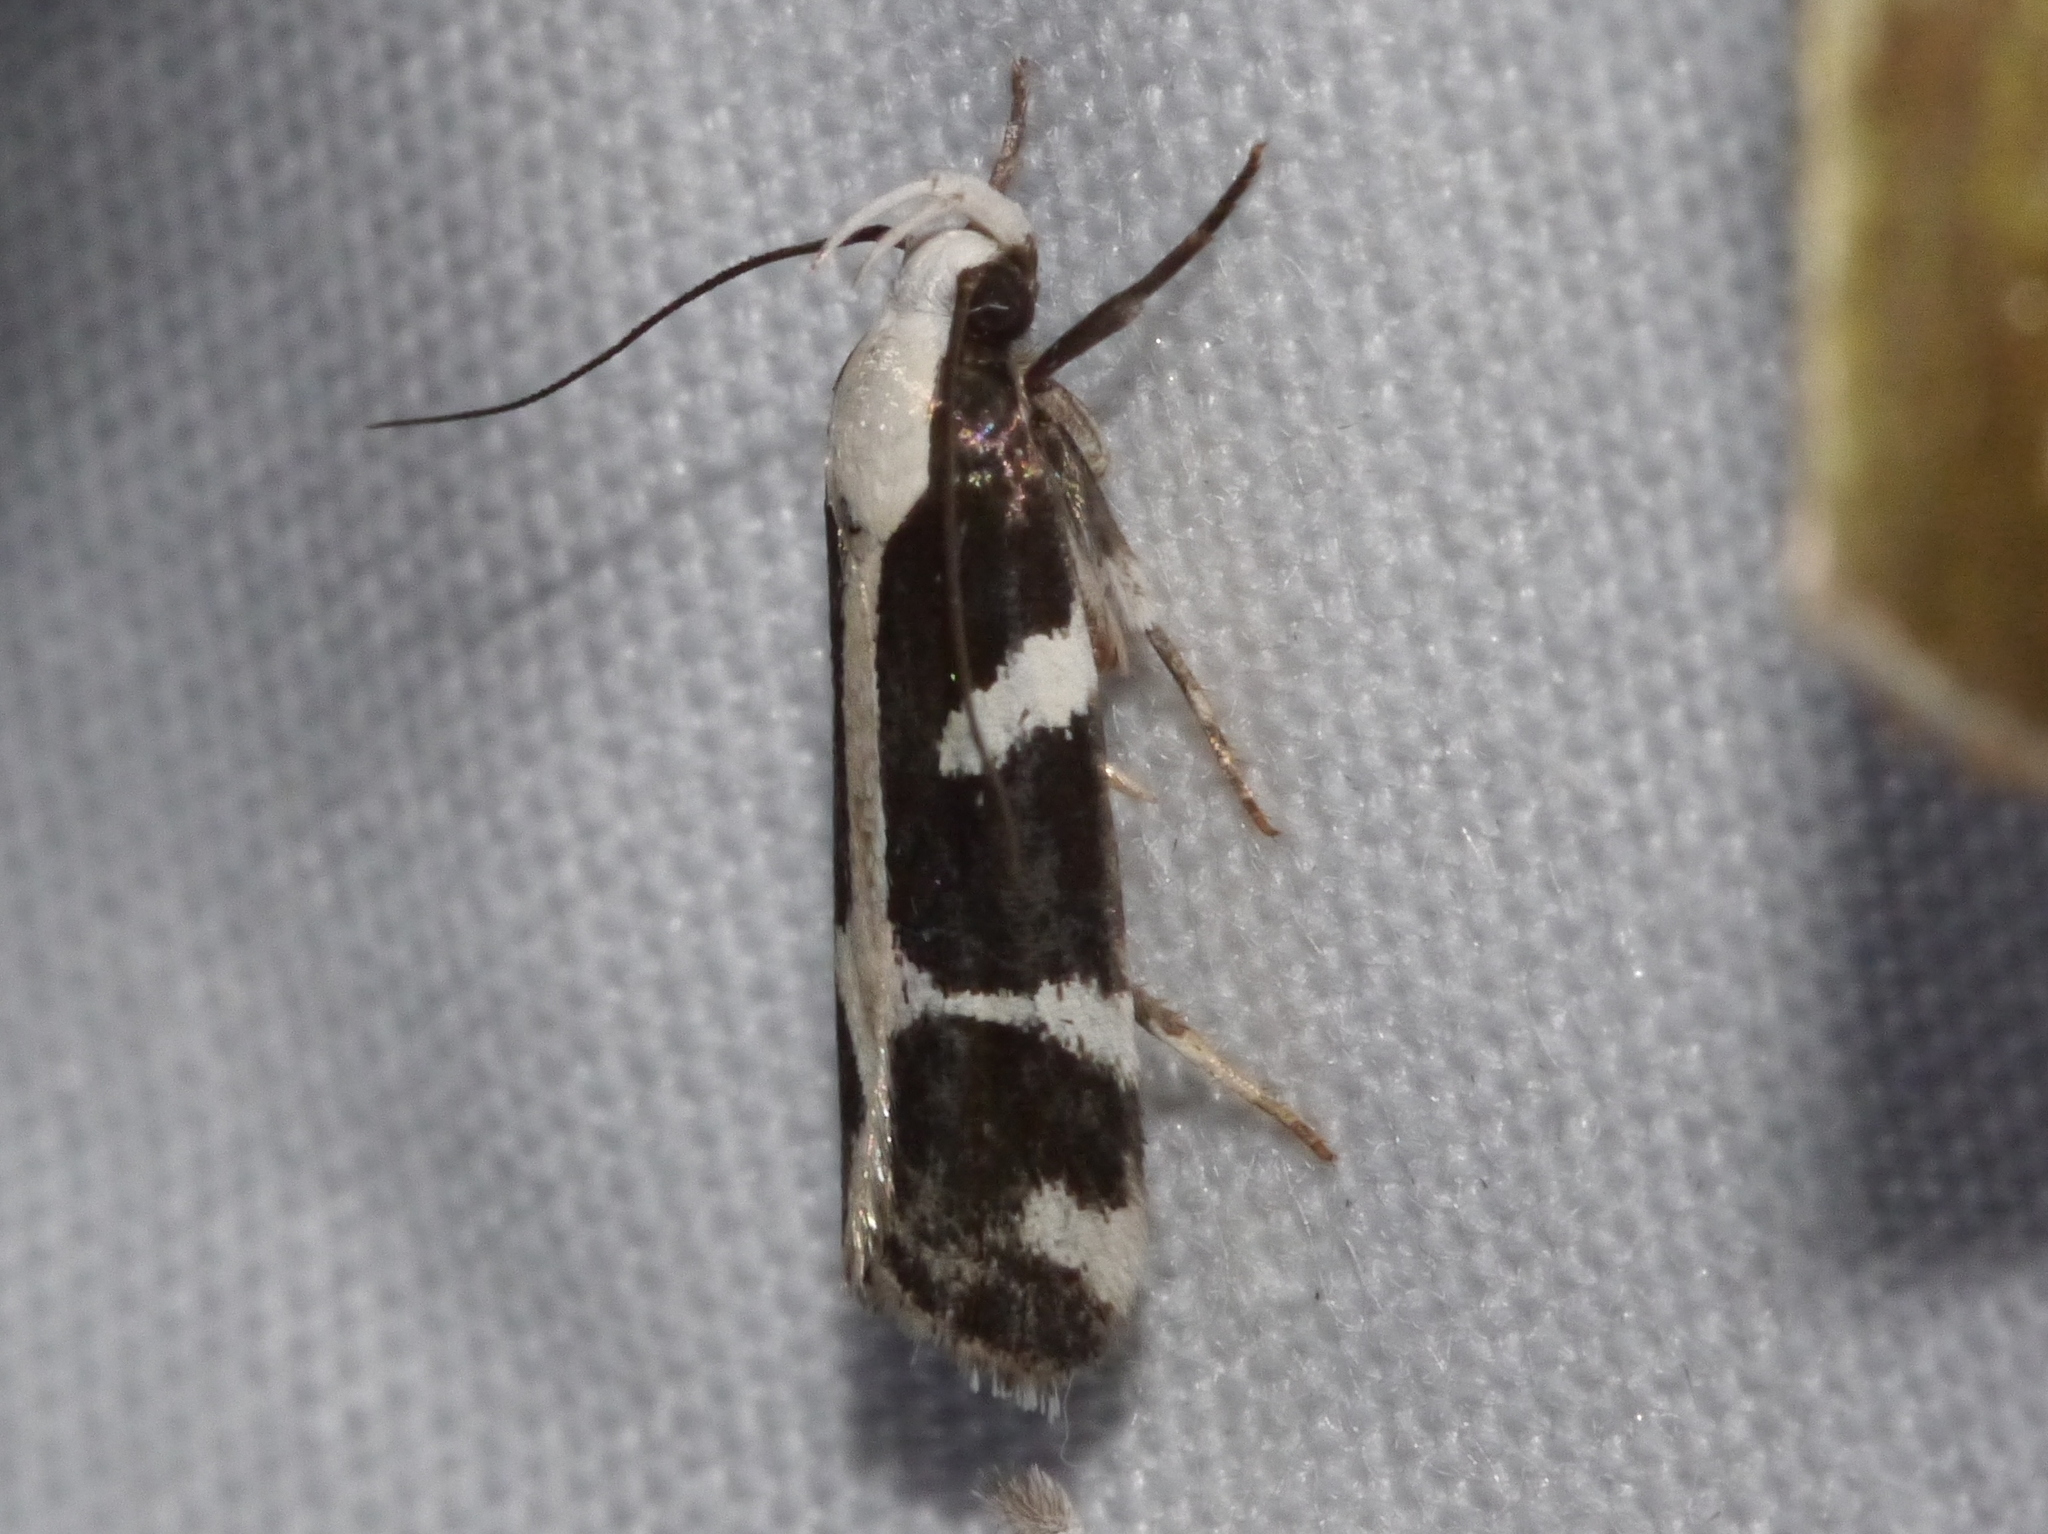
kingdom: Animalia
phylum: Arthropoda
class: Insecta
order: Lepidoptera
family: Gelechiidae
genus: Epilechia
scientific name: Epilechia catalinella
